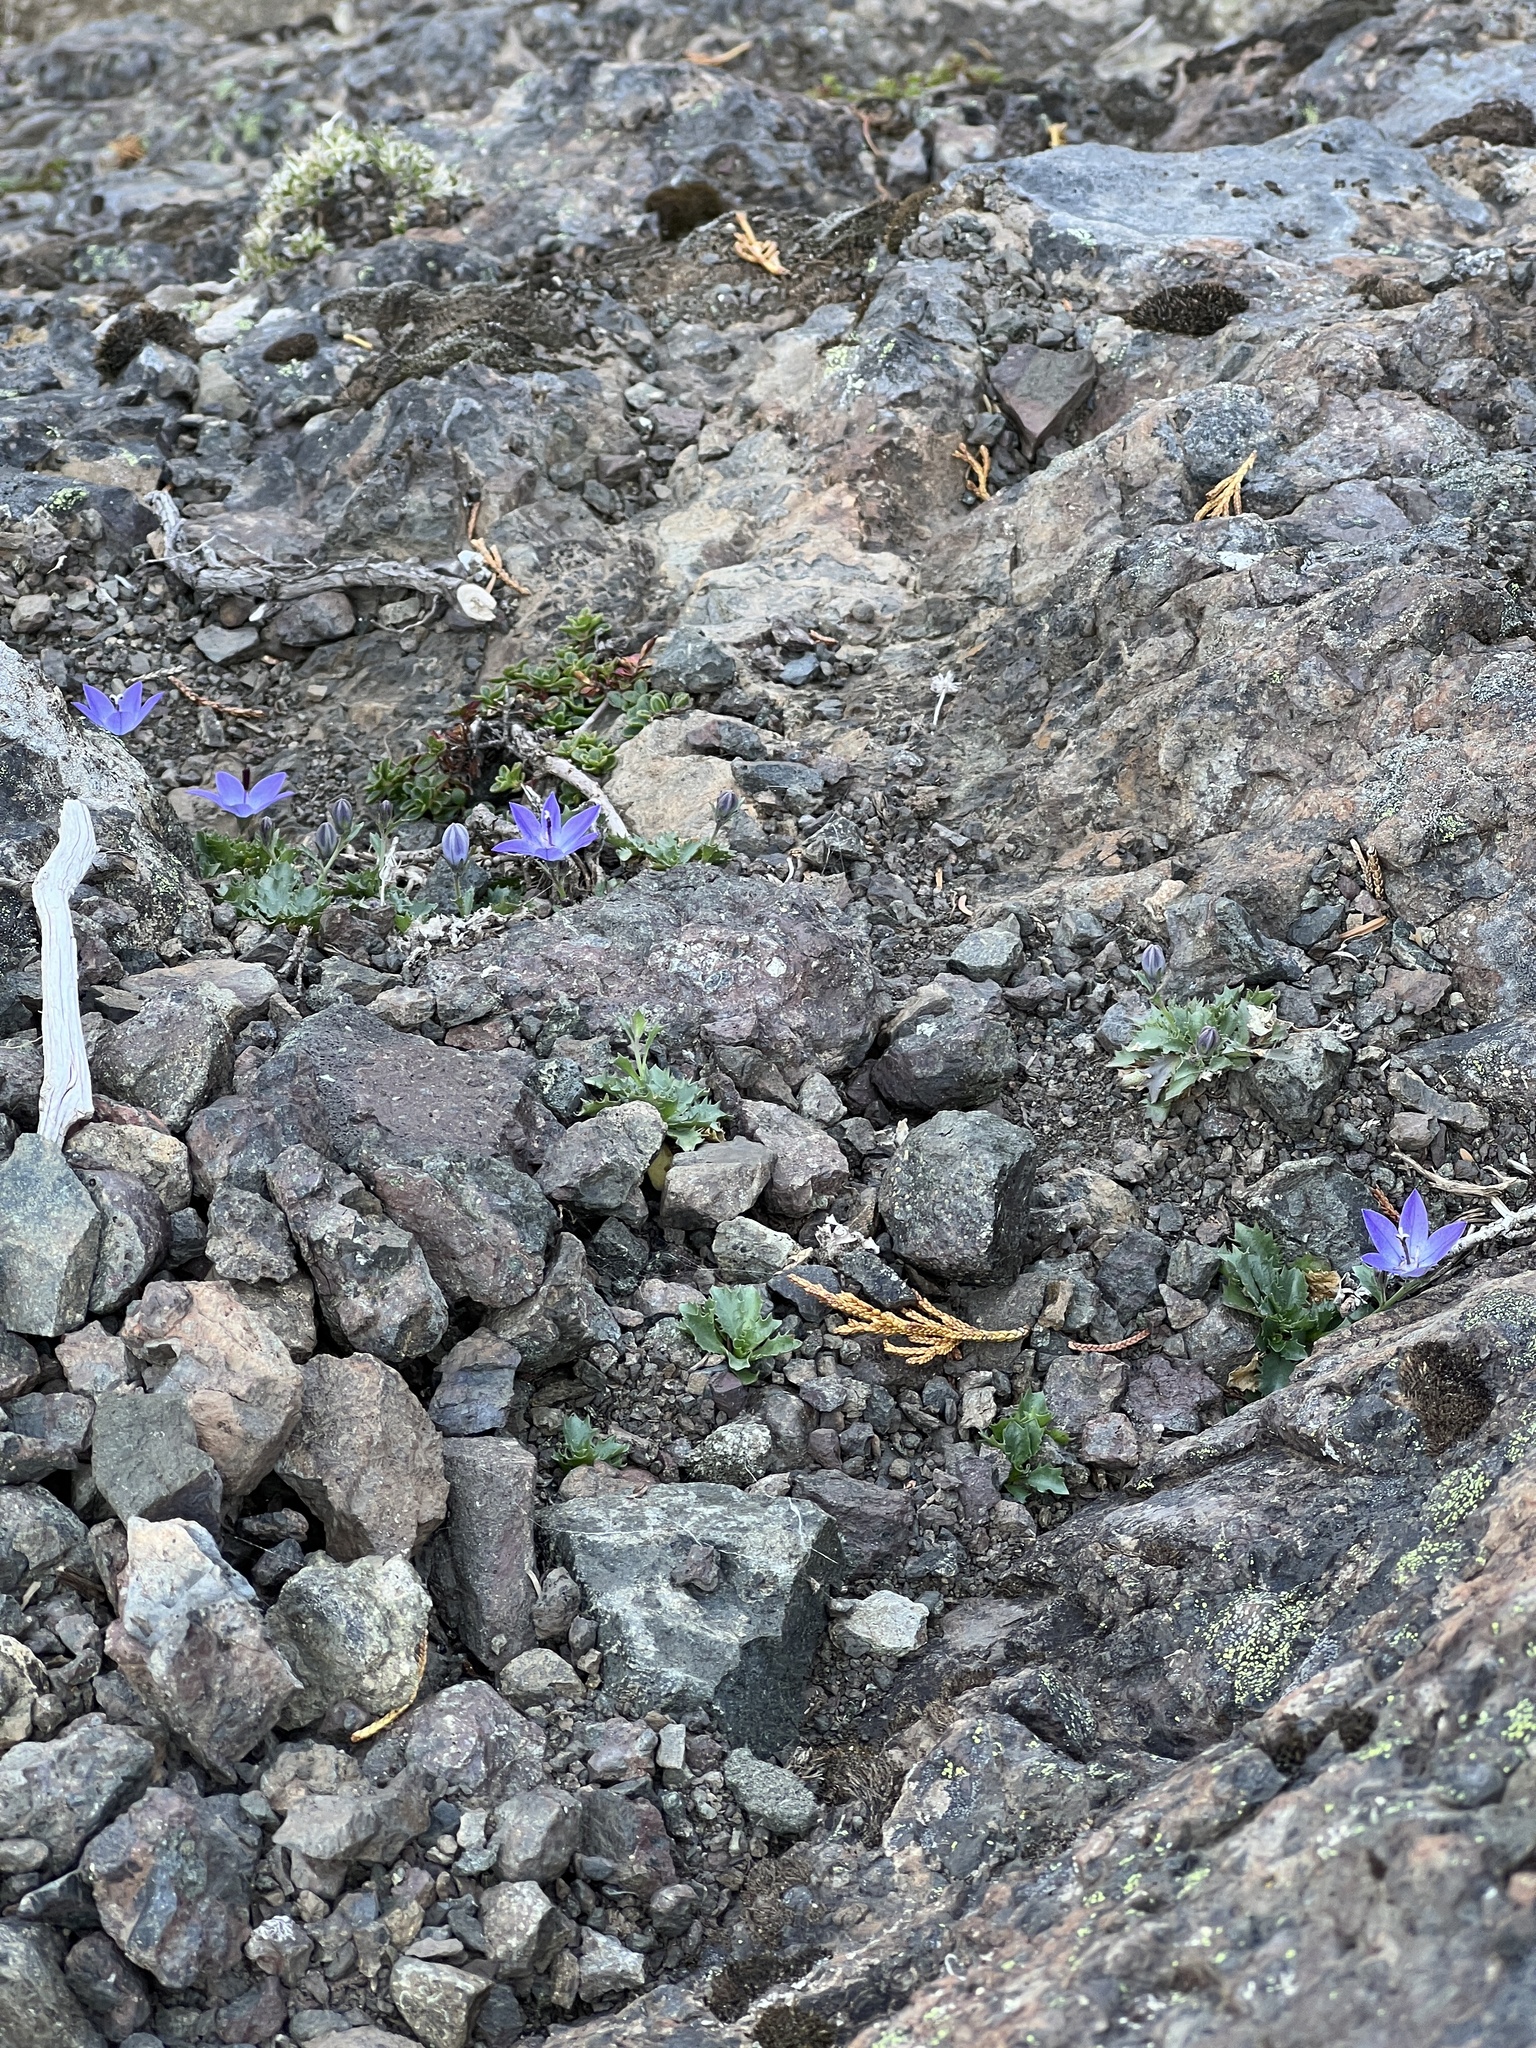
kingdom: Plantae
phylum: Tracheophyta
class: Magnoliopsida
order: Asterales
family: Campanulaceae
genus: Campanula
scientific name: Campanula piperi
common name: Olympic bellflower
